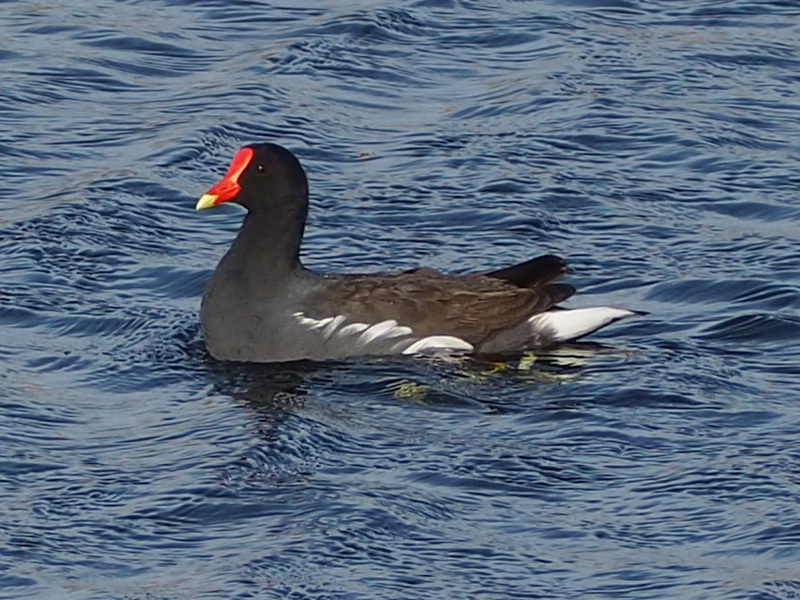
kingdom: Animalia
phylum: Chordata
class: Aves
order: Gruiformes
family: Rallidae
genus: Gallinula
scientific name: Gallinula chloropus
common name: Common moorhen
